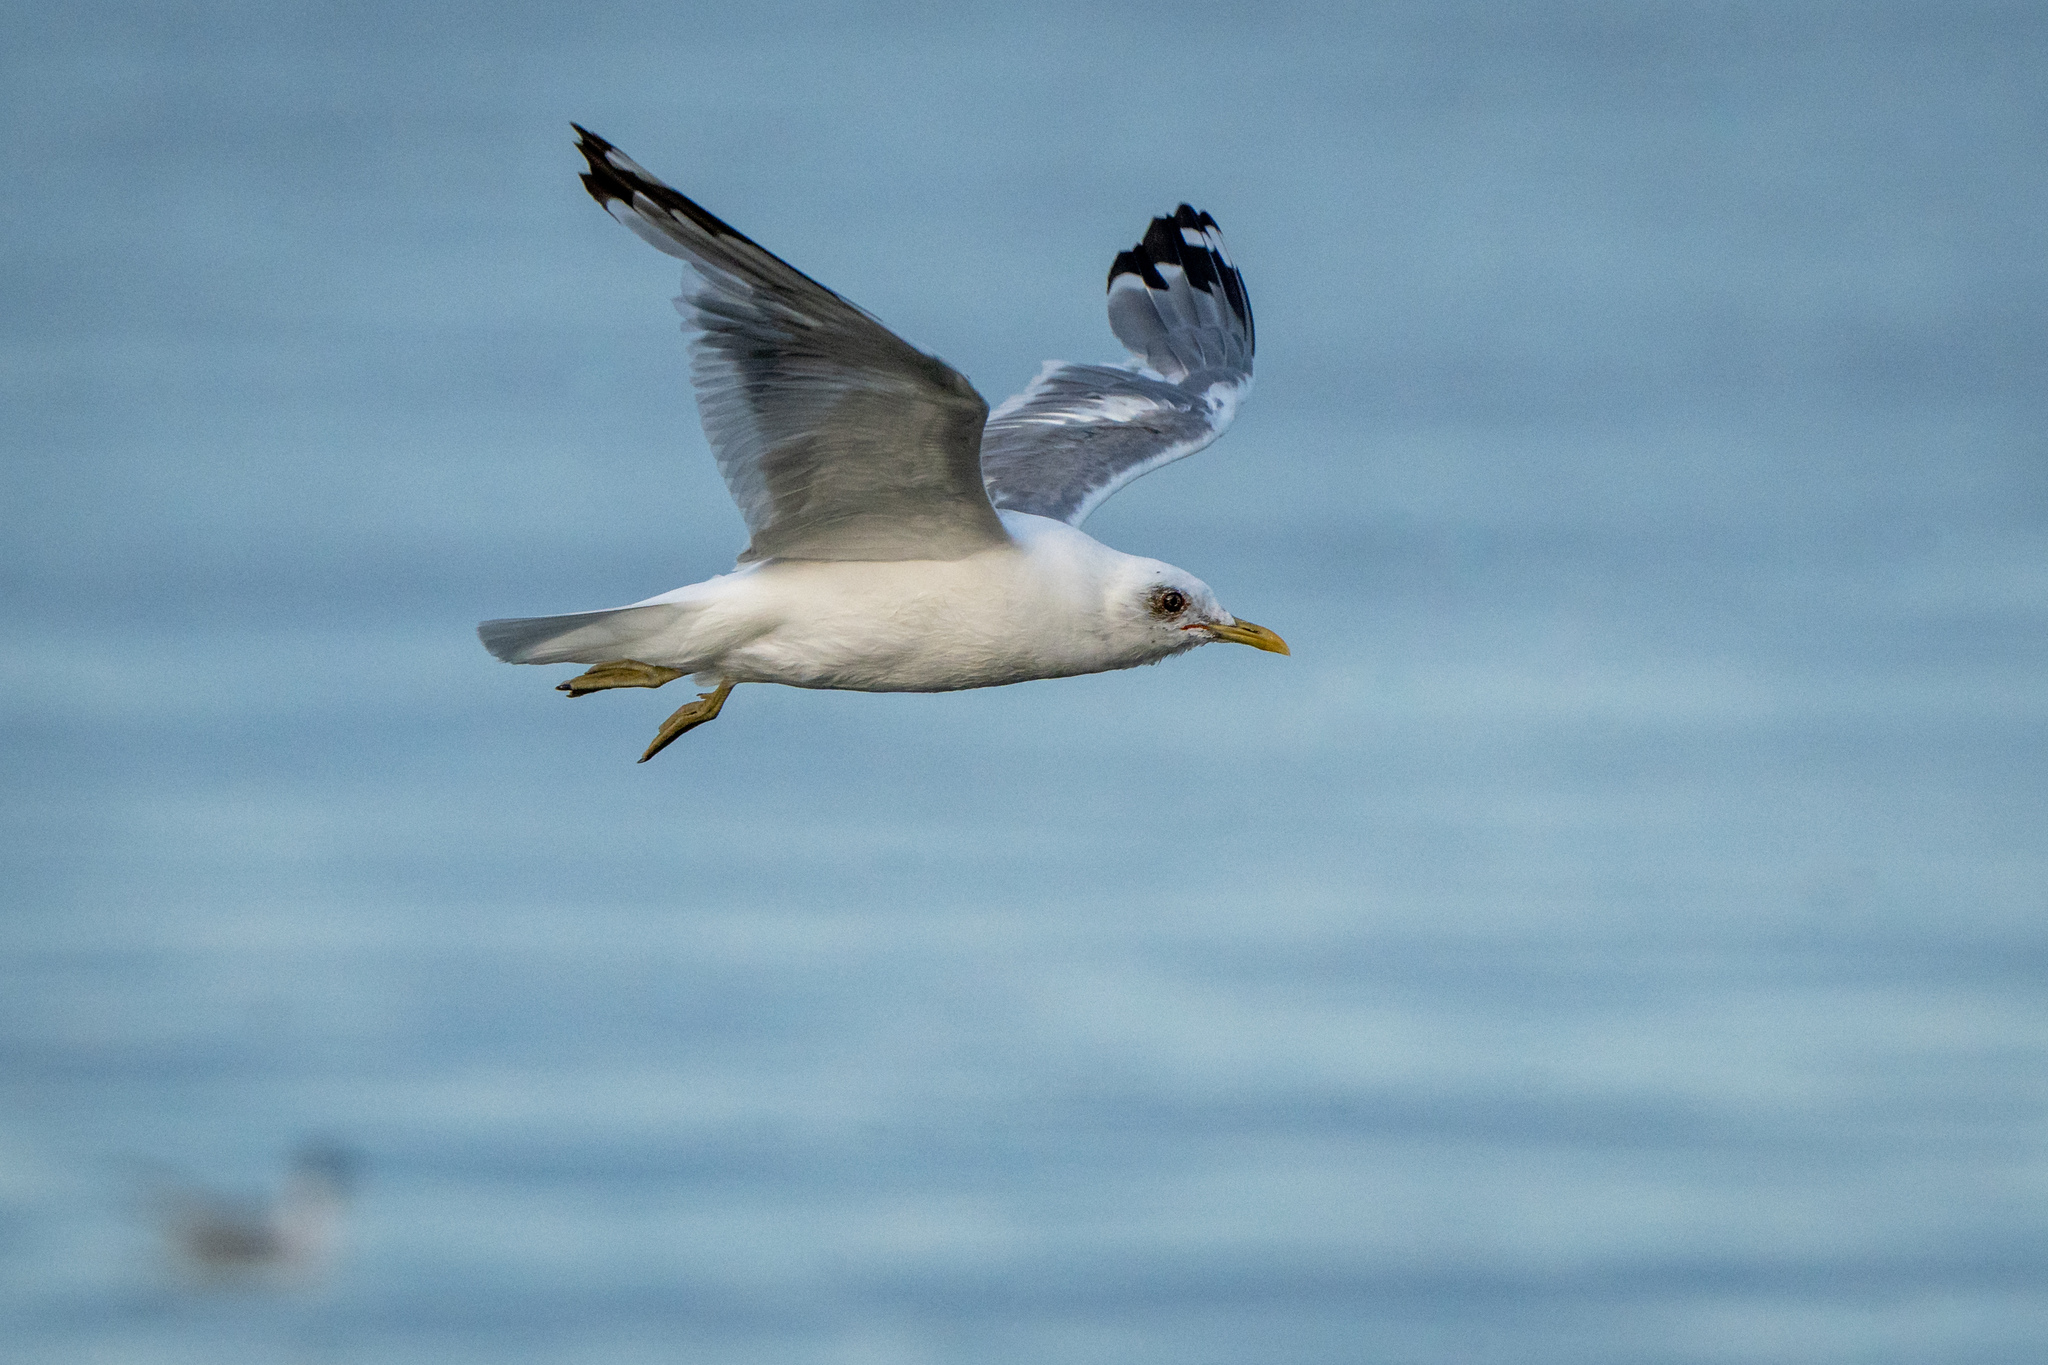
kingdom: Animalia
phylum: Chordata
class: Aves
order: Charadriiformes
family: Laridae
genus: Larus
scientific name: Larus brachyrhynchus
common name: Short-billed gull
